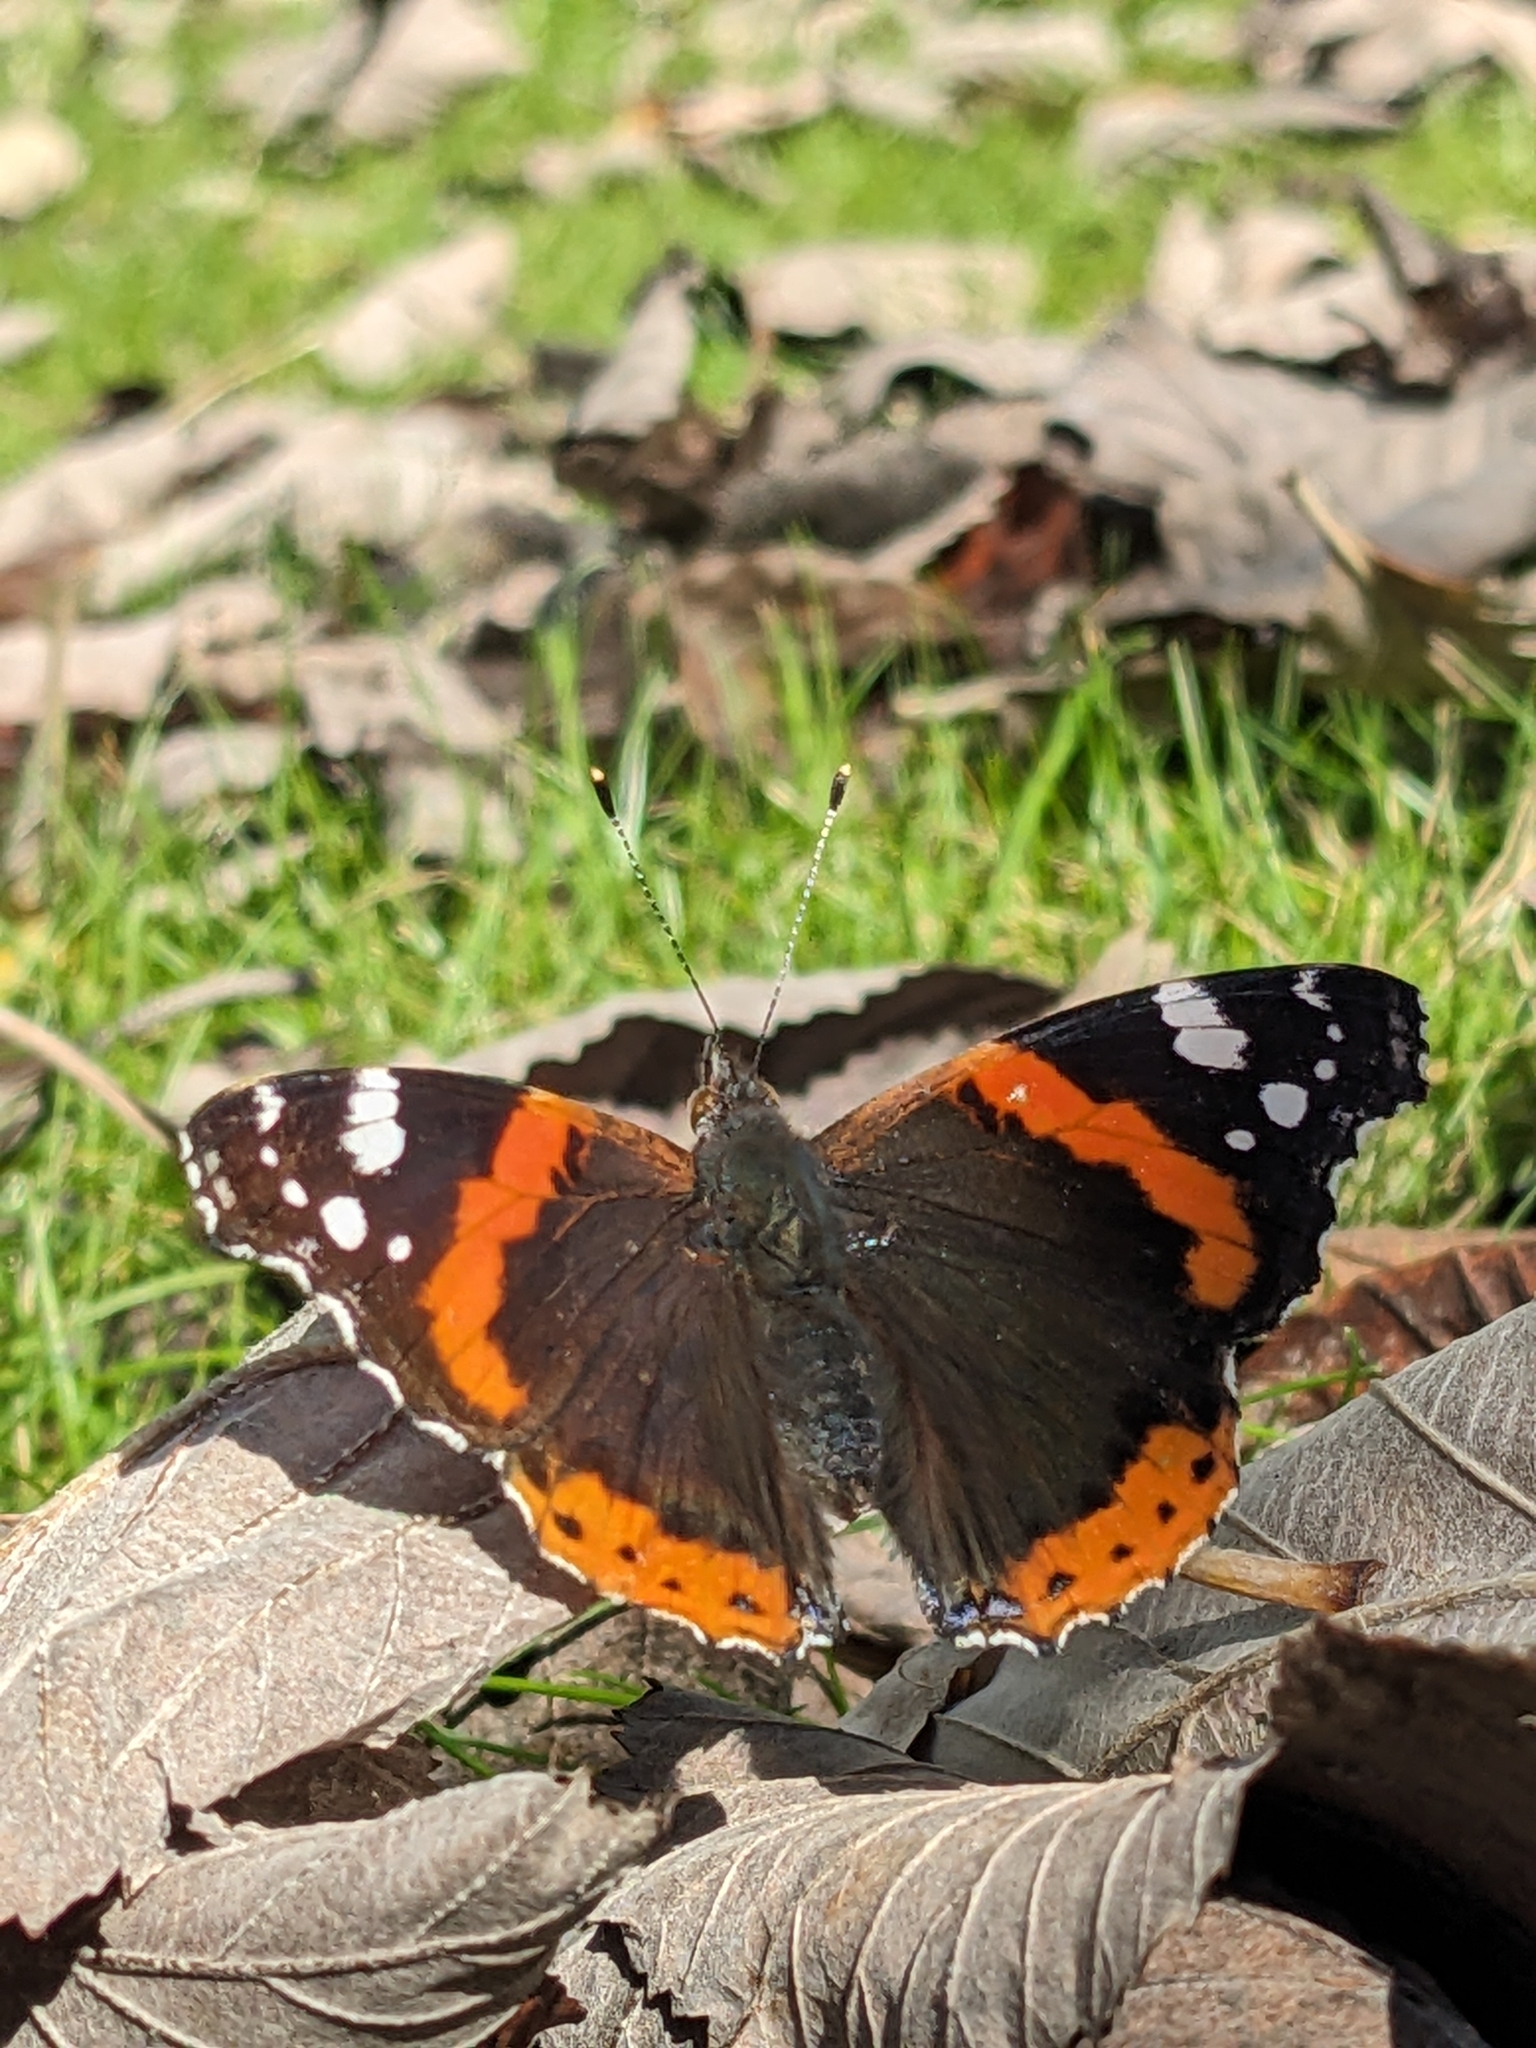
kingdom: Animalia
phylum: Arthropoda
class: Insecta
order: Lepidoptera
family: Nymphalidae
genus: Vanessa
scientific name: Vanessa atalanta
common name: Red admiral
